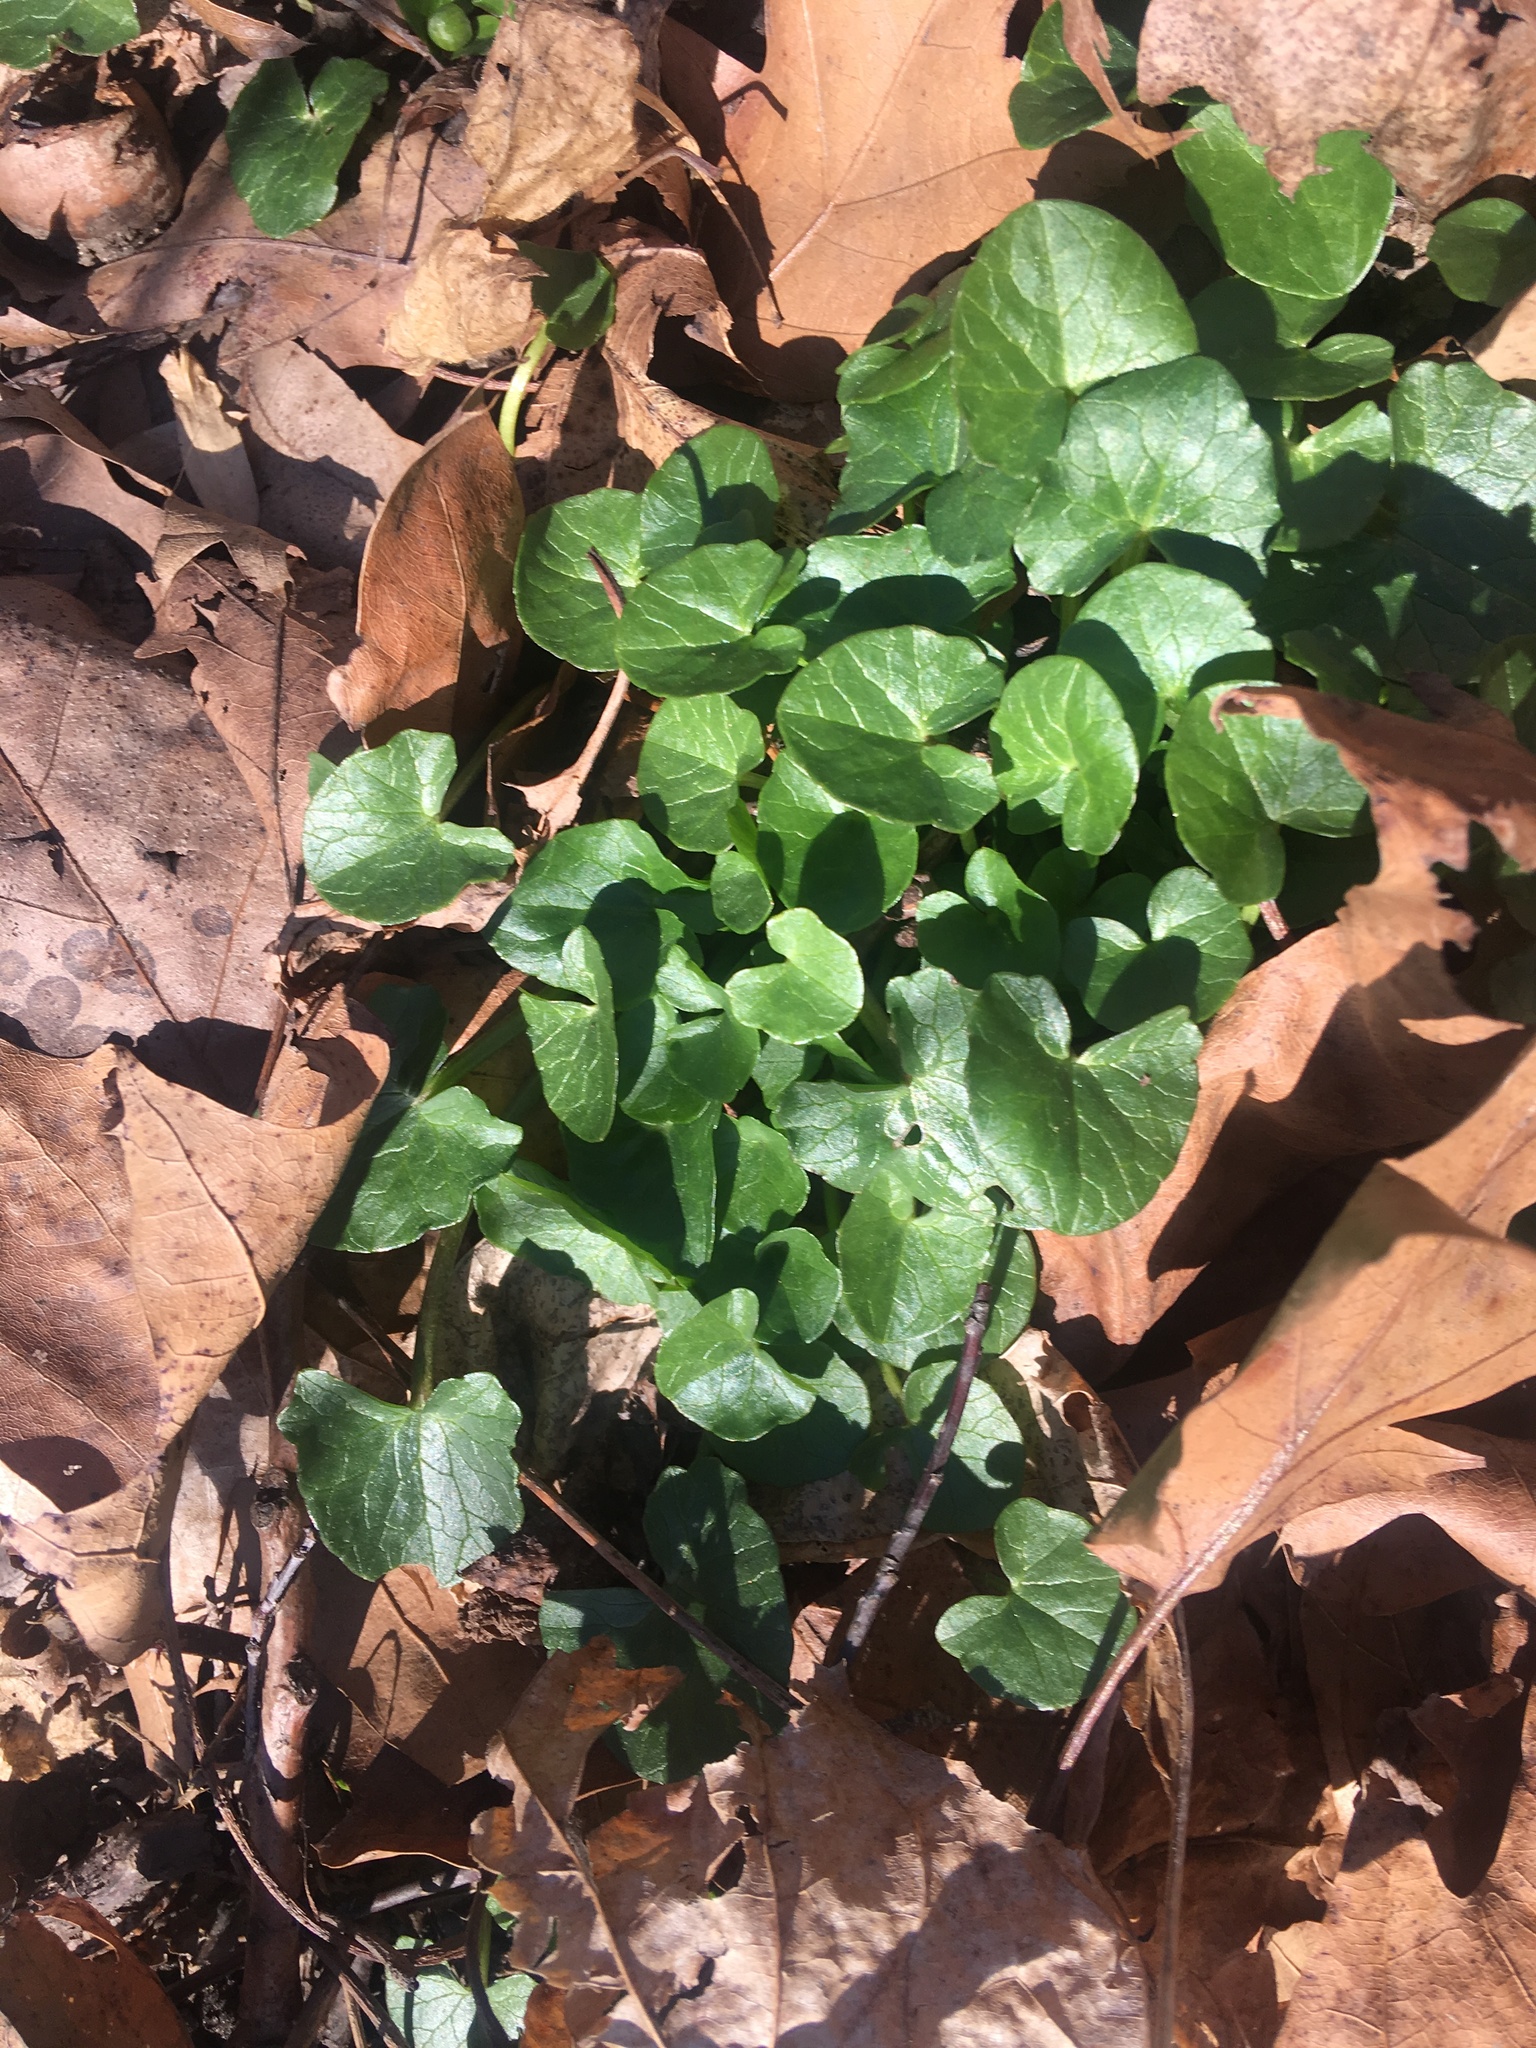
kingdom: Plantae
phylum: Tracheophyta
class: Magnoliopsida
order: Ranunculales
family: Ranunculaceae
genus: Ficaria
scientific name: Ficaria verna
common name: Lesser celandine
